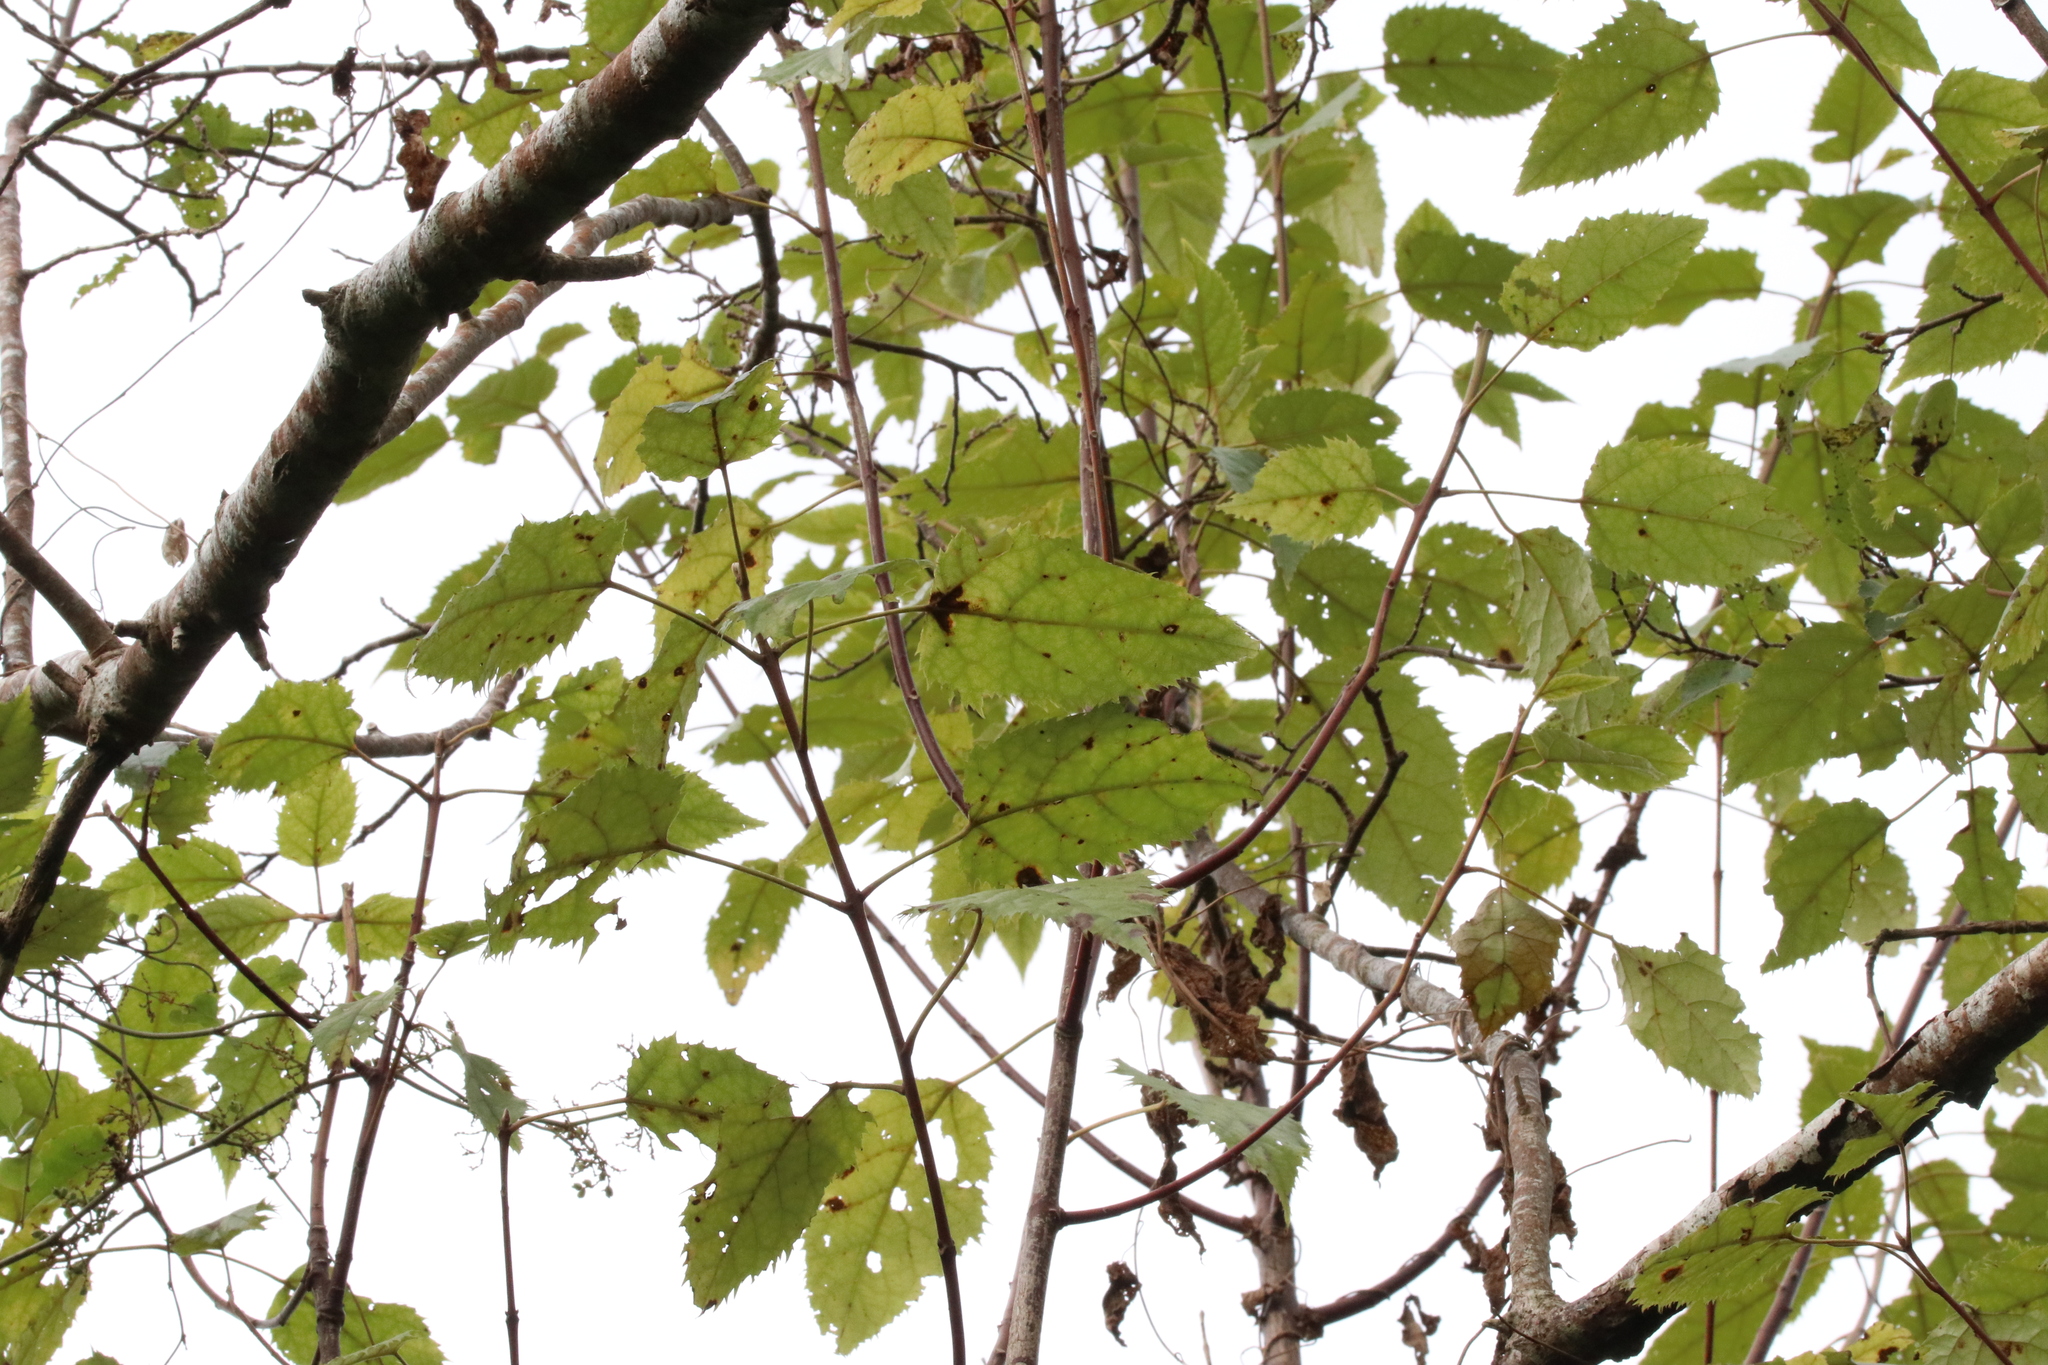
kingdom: Plantae
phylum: Tracheophyta
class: Magnoliopsida
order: Oxalidales
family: Elaeocarpaceae
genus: Aristotelia
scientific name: Aristotelia serrata
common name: New zealand wineberry
